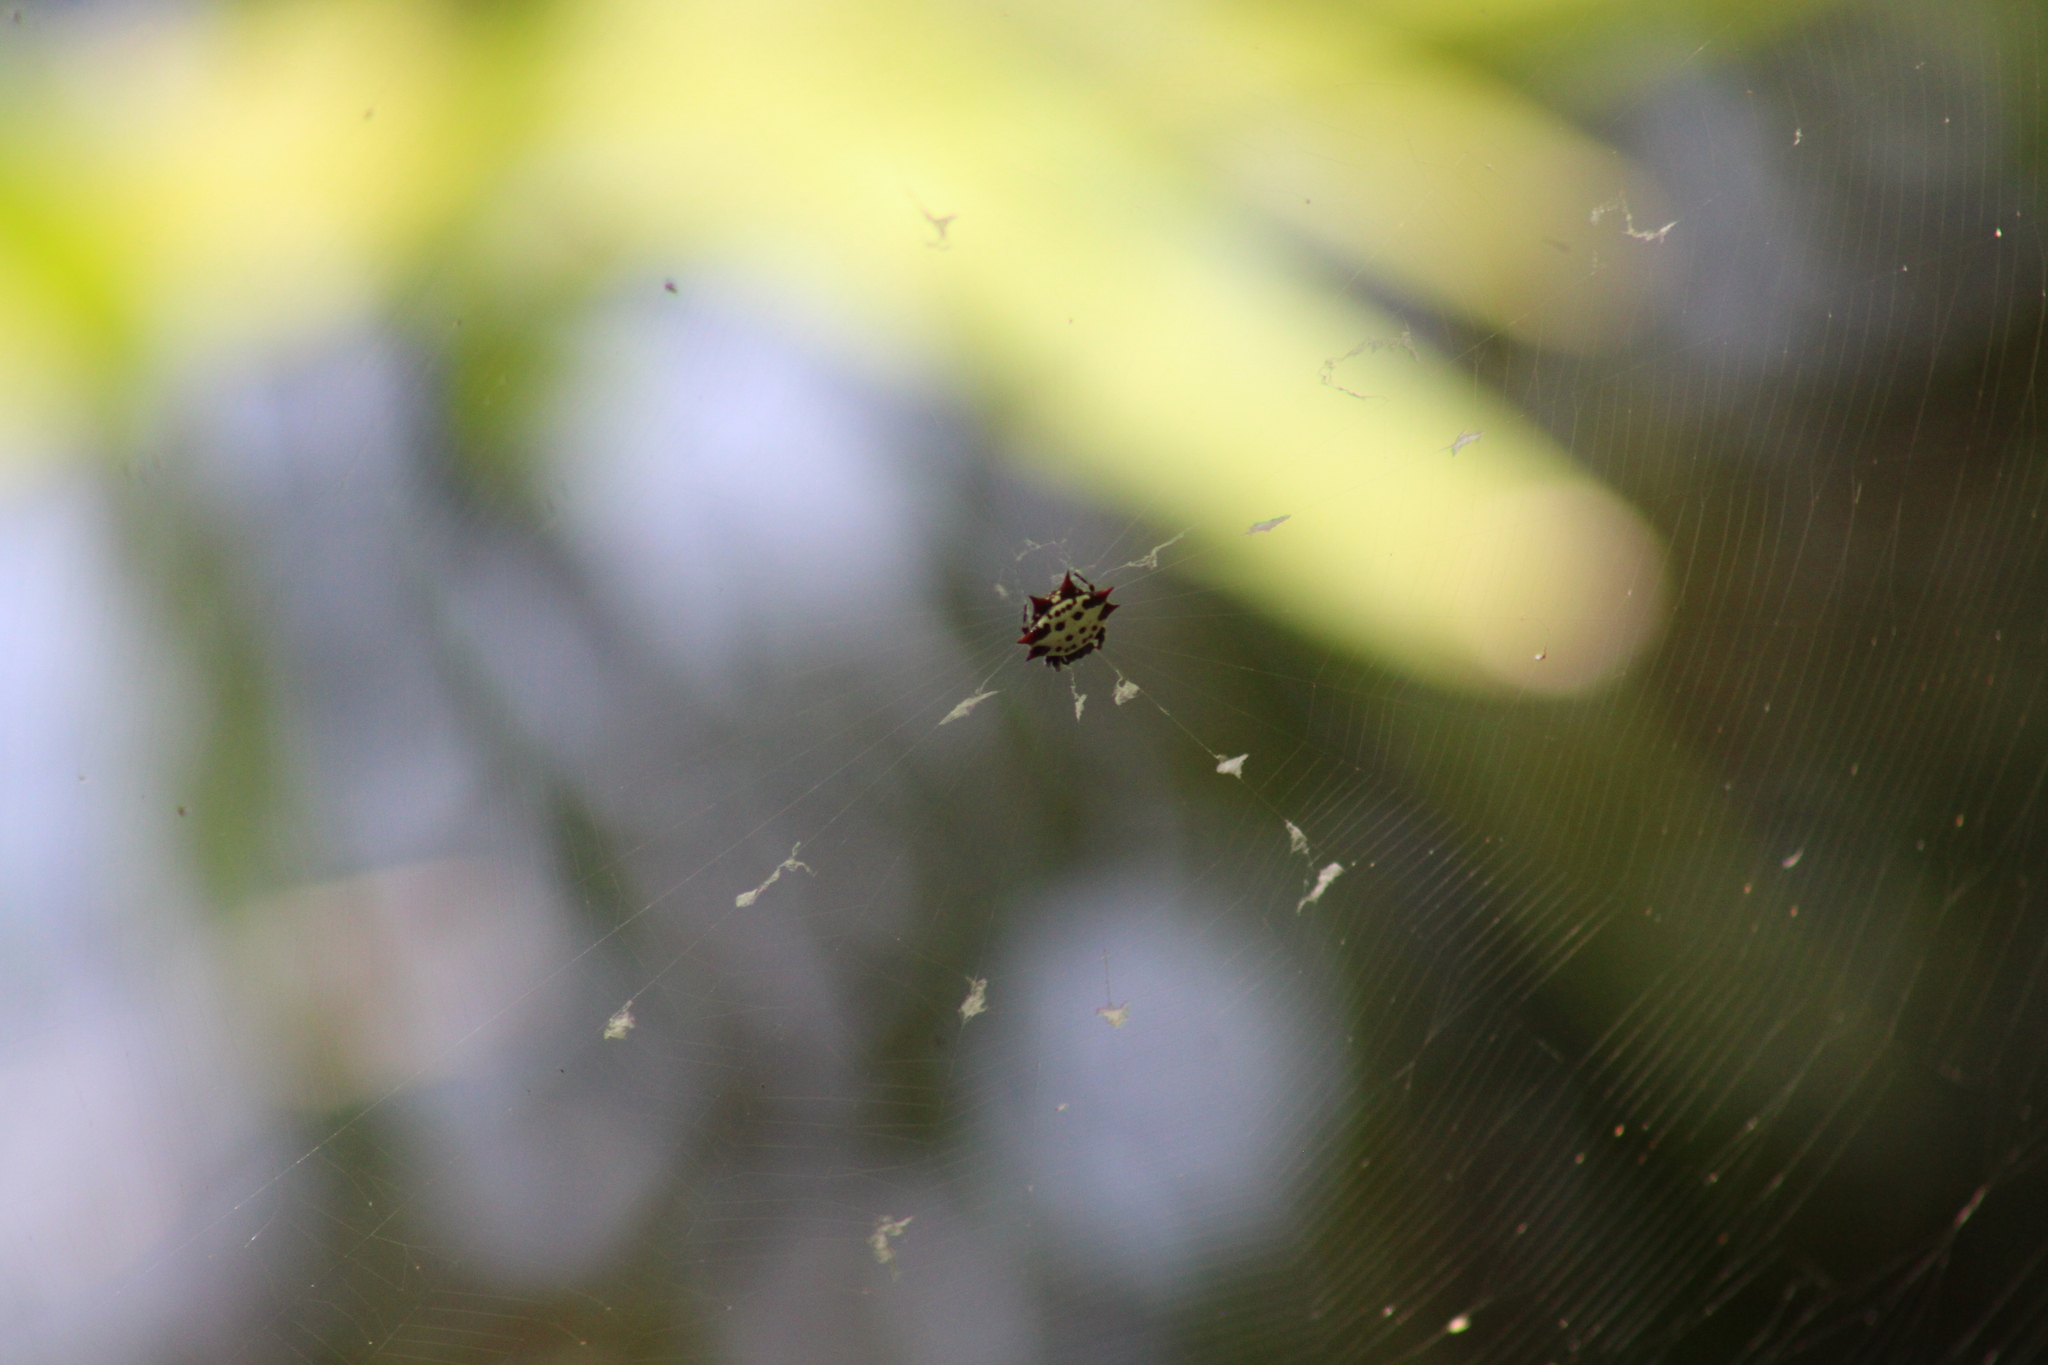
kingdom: Animalia
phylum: Arthropoda
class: Arachnida
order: Araneae
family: Araneidae
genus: Gasteracantha
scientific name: Gasteracantha cancriformis
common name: Orb weavers
